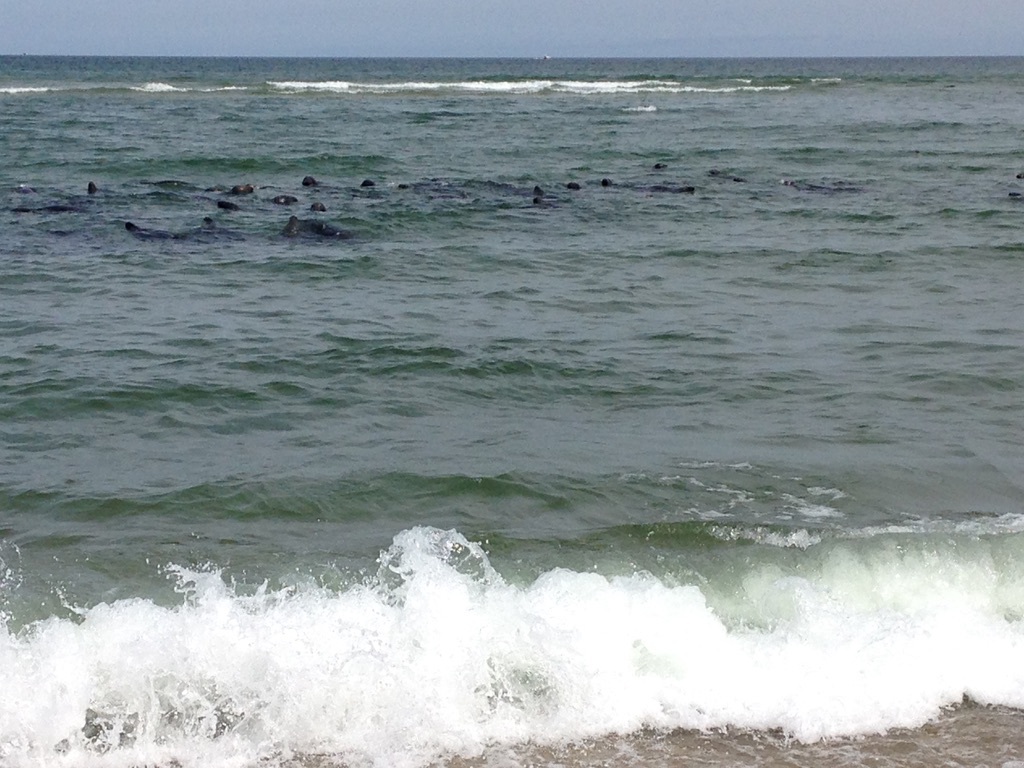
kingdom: Animalia
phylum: Chordata
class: Mammalia
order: Carnivora
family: Phocidae
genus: Halichoerus
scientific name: Halichoerus grypus
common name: Grey seal
